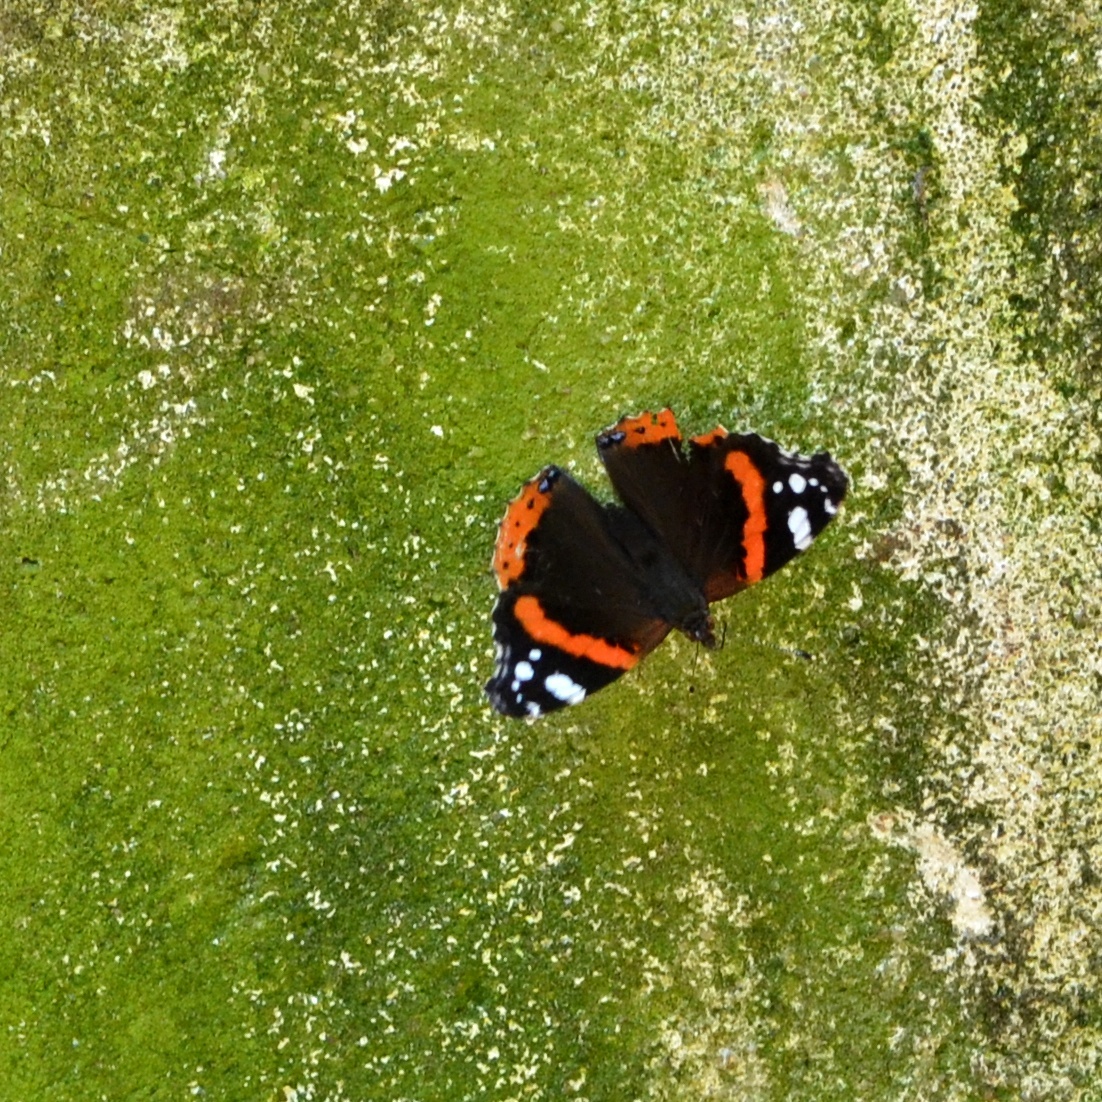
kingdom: Animalia
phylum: Arthropoda
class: Insecta
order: Lepidoptera
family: Nymphalidae
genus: Vanessa
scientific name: Vanessa atalanta
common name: Red admiral
